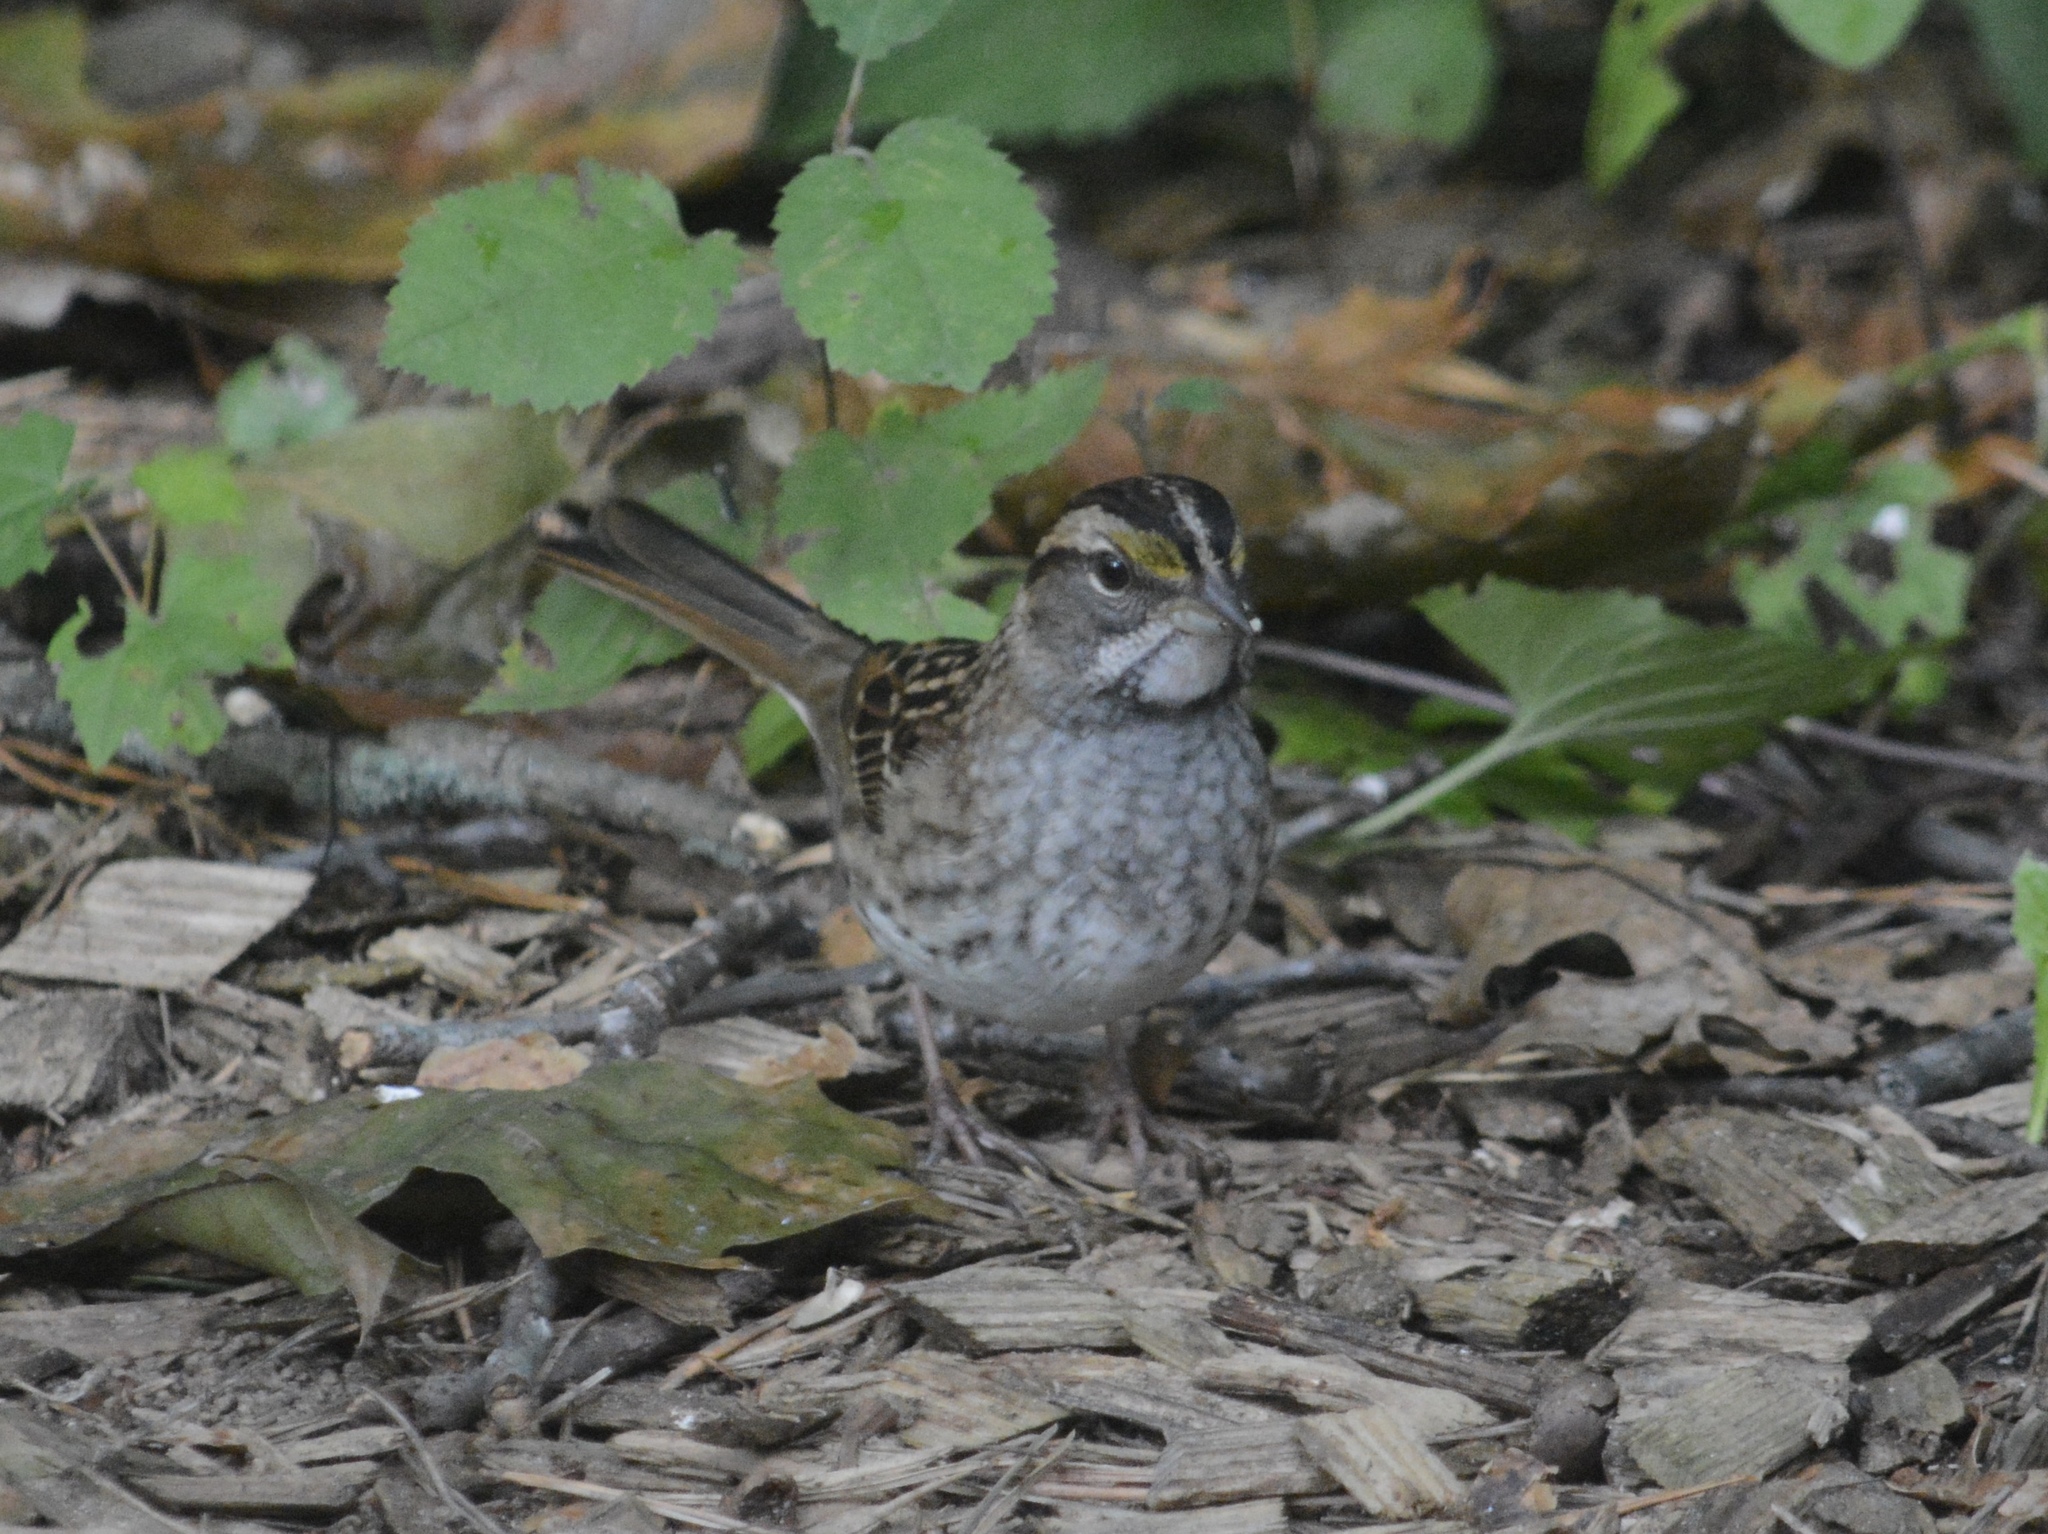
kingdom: Animalia
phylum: Chordata
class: Aves
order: Passeriformes
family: Passerellidae
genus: Zonotrichia
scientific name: Zonotrichia albicollis
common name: White-throated sparrow
